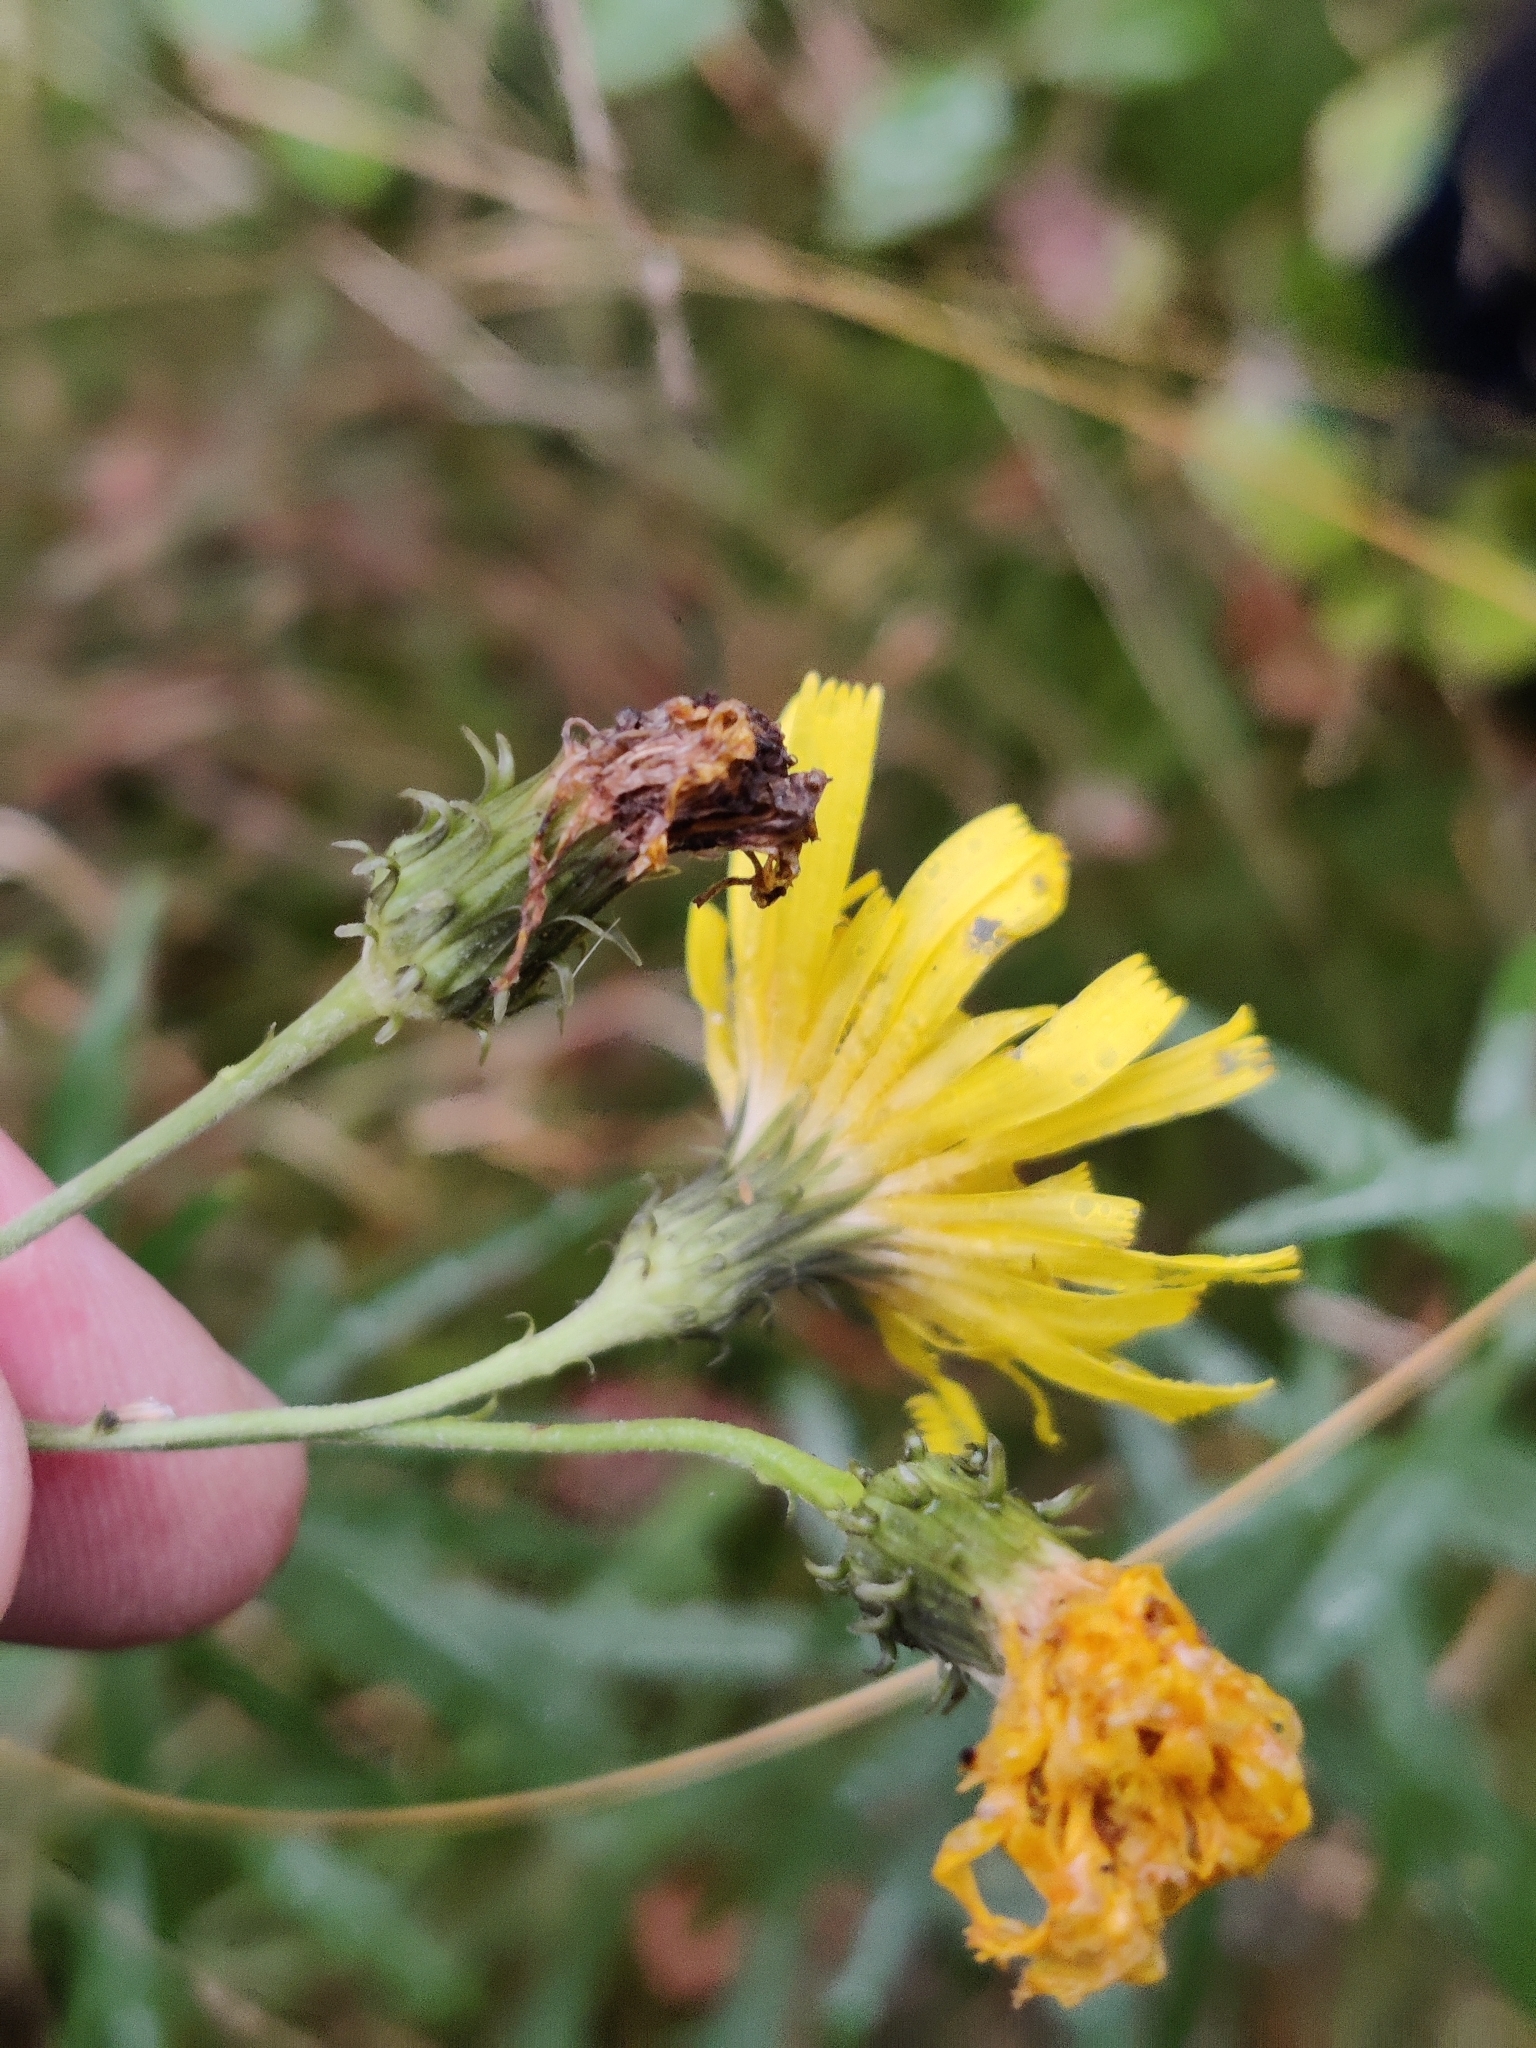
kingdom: Plantae
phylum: Tracheophyta
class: Magnoliopsida
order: Asterales
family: Asteraceae
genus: Hieracium
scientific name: Hieracium umbellatum
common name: Northern hawkweed
